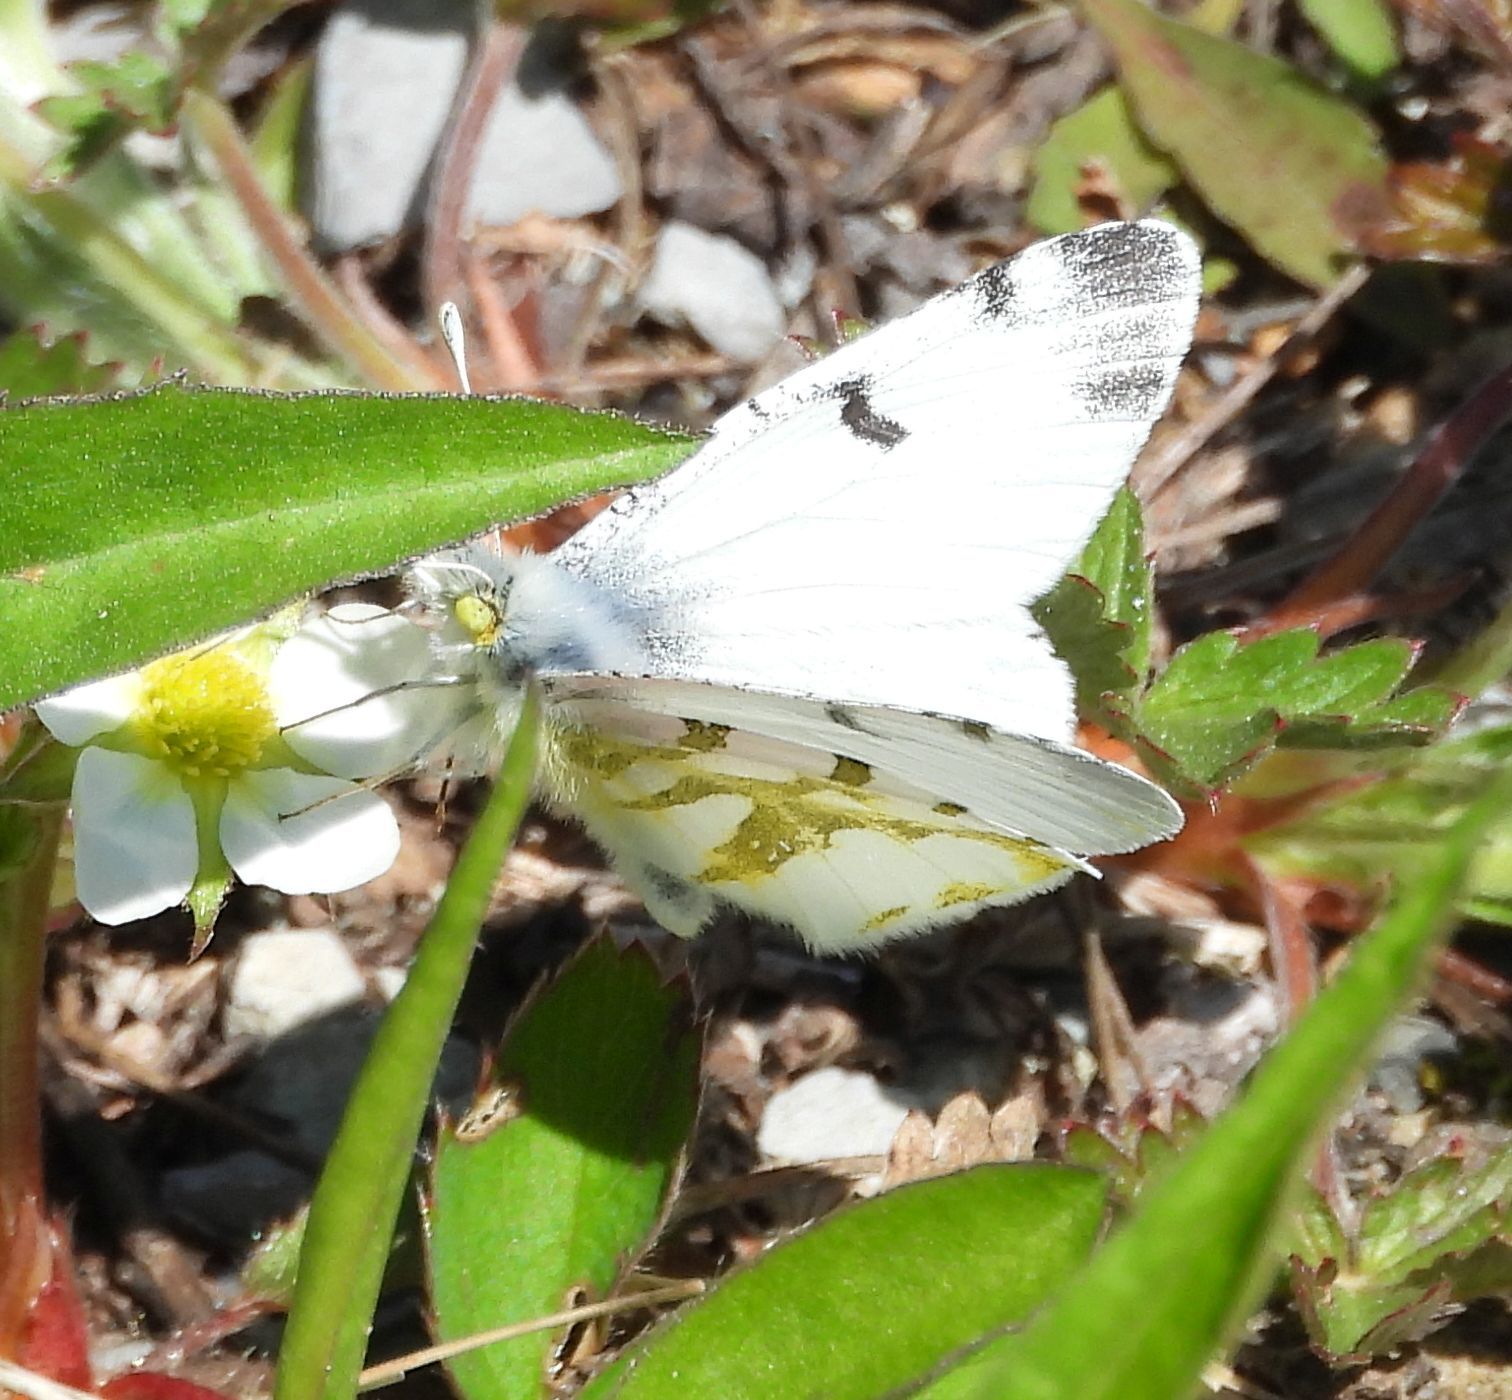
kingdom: Animalia
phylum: Arthropoda
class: Insecta
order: Lepidoptera
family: Pieridae
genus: Euchloe
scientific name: Euchloe olympia
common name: Olympia
